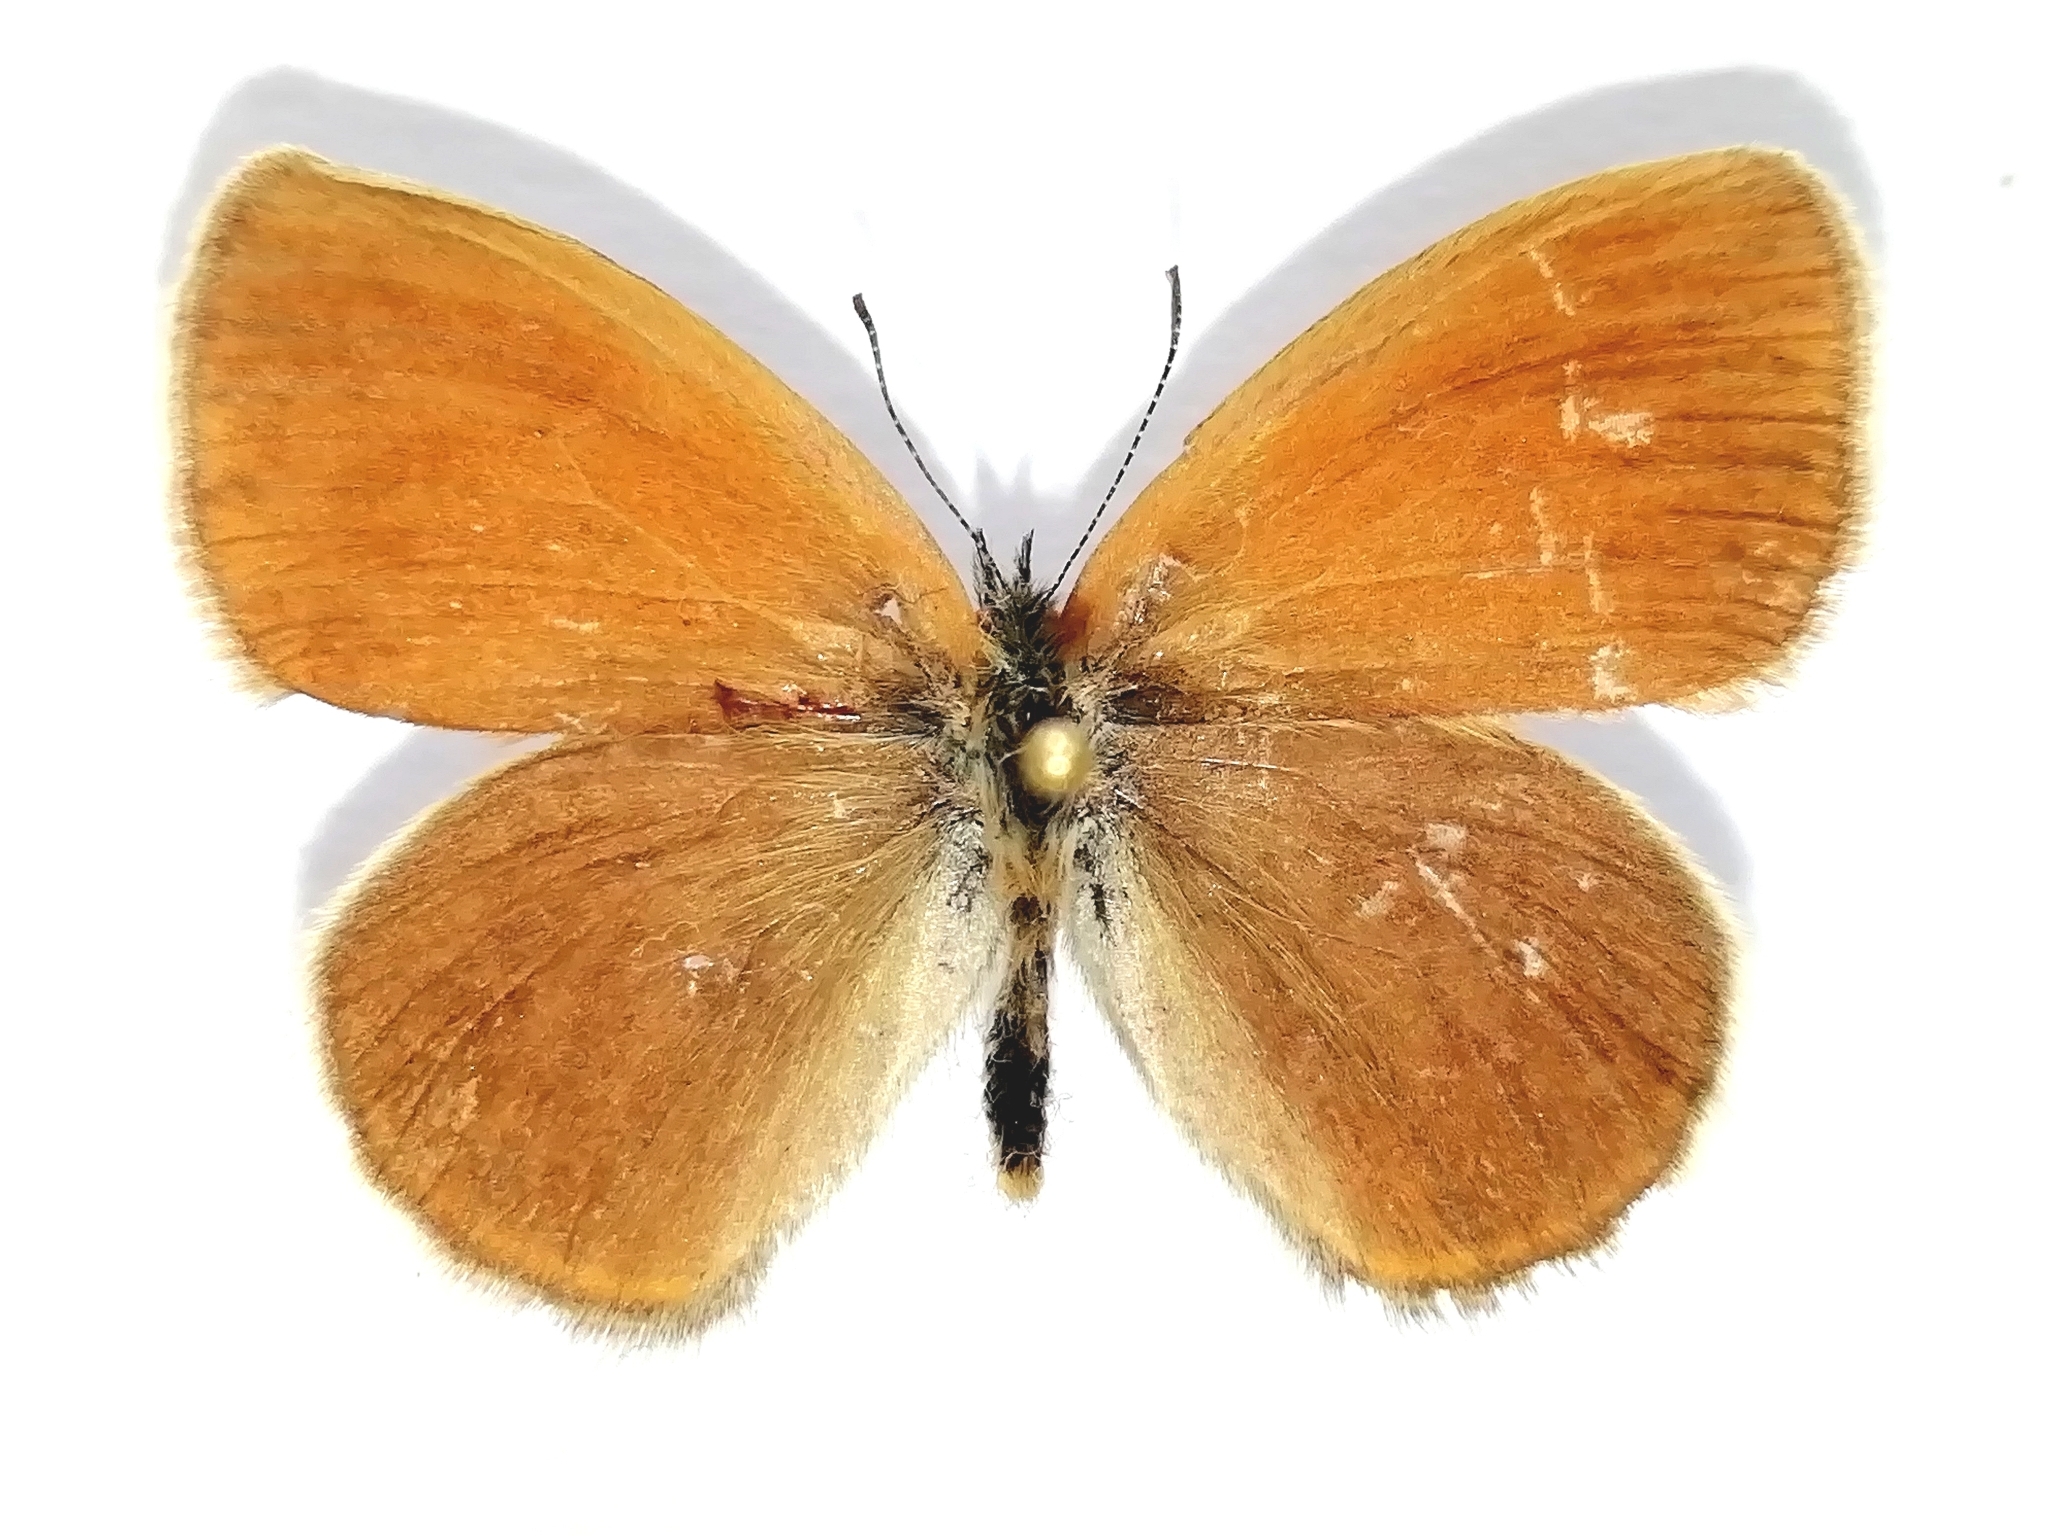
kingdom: Animalia
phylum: Arthropoda
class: Insecta
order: Lepidoptera
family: Nymphalidae
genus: Coenonympha
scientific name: Coenonympha iphis
